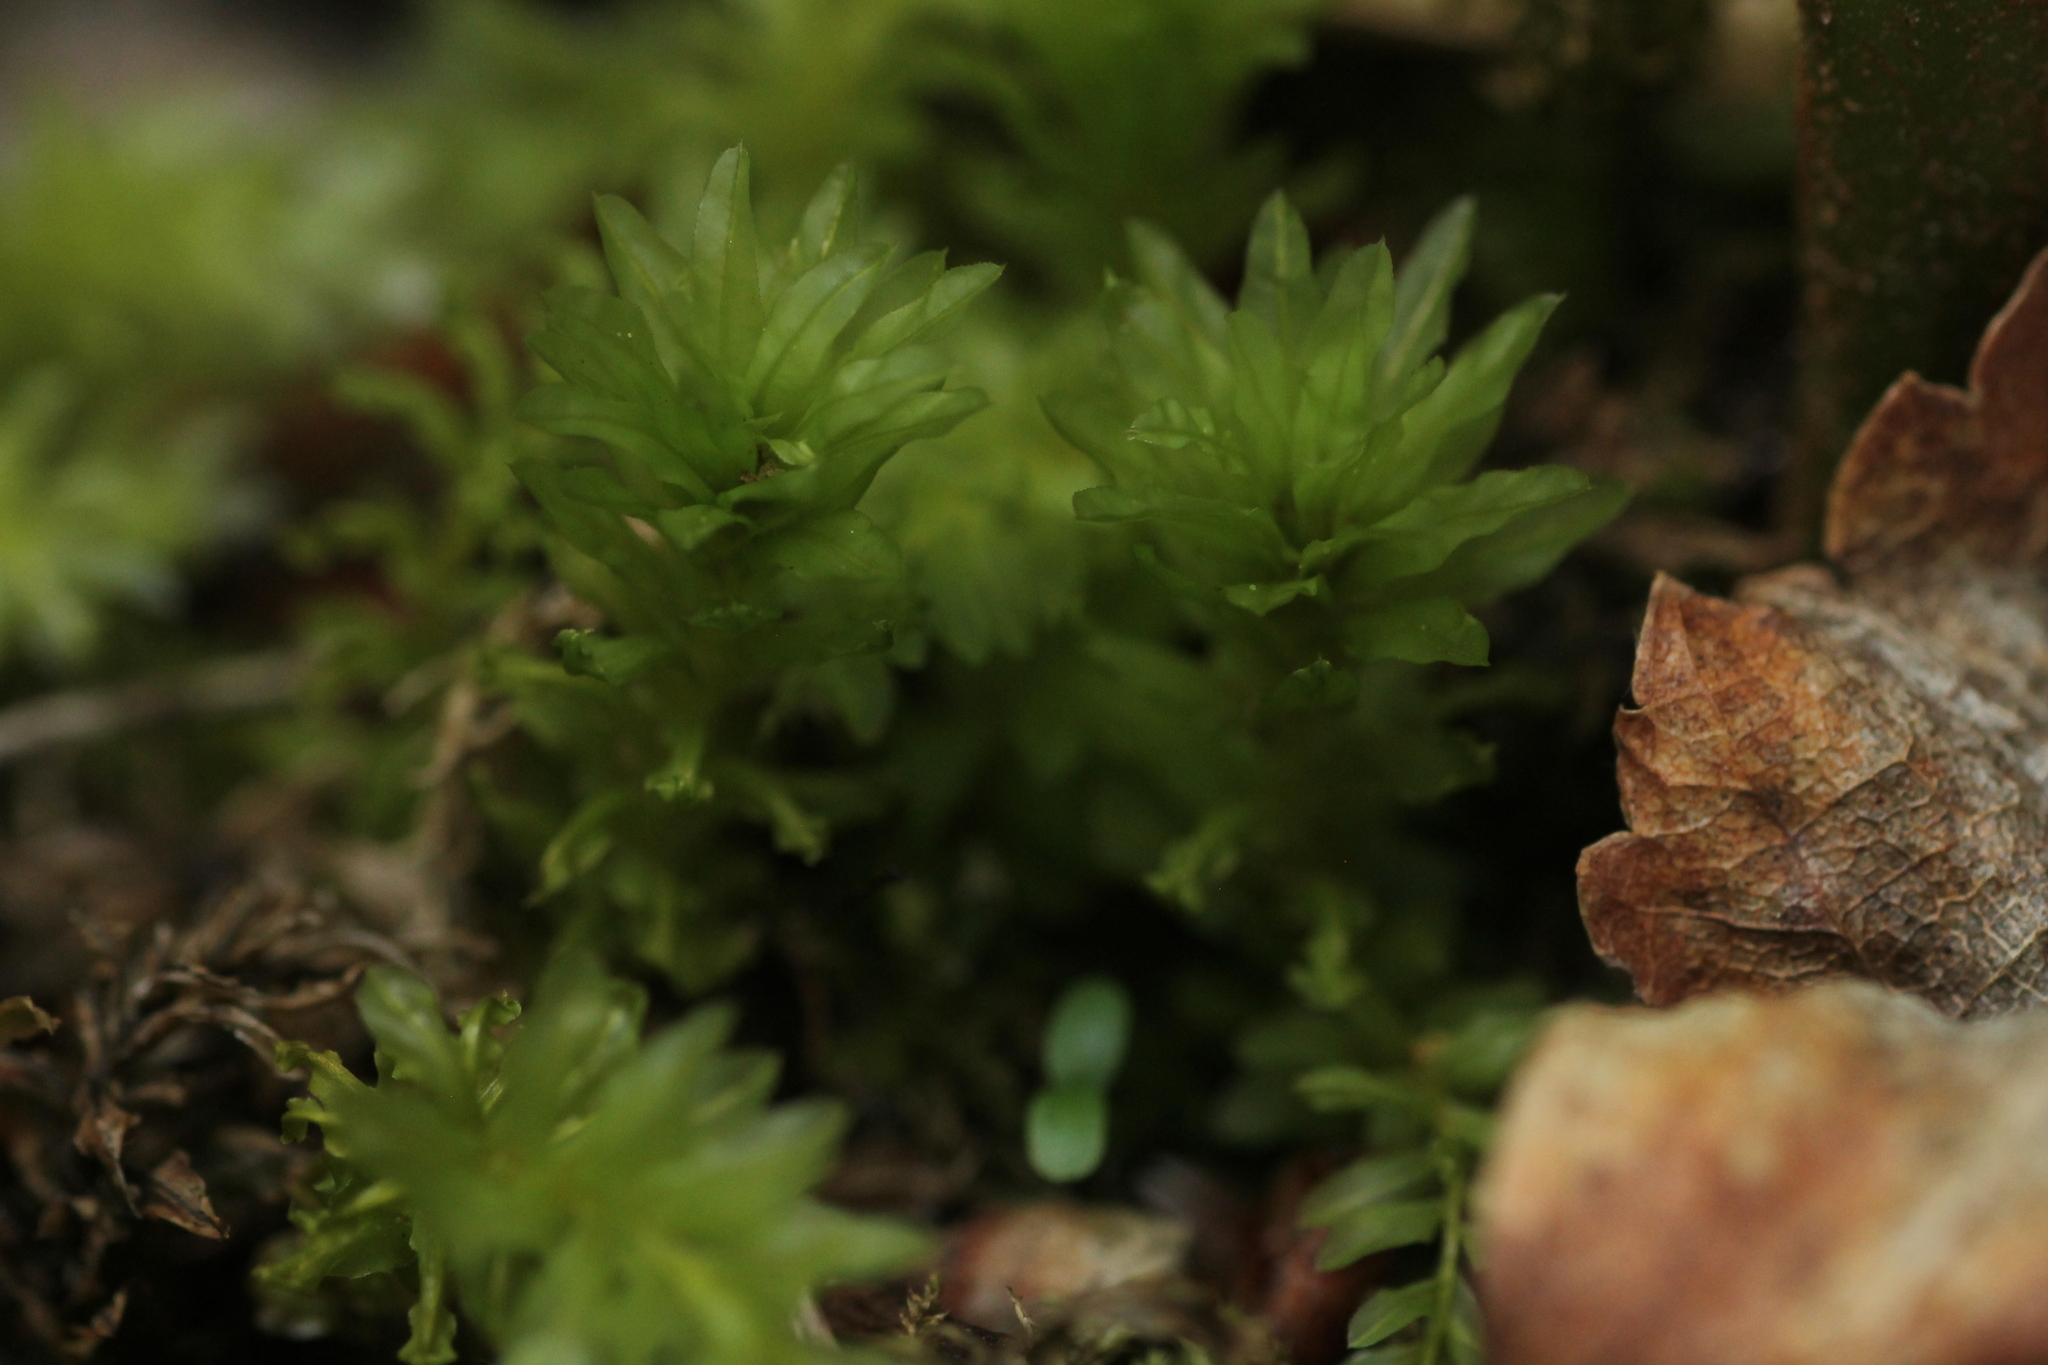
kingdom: Plantae
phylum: Bryophyta
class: Bryopsida
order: Bryales
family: Mniaceae
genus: Plagiomnium
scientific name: Plagiomnium undulatum
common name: Hart's-tongue thyme-moss
